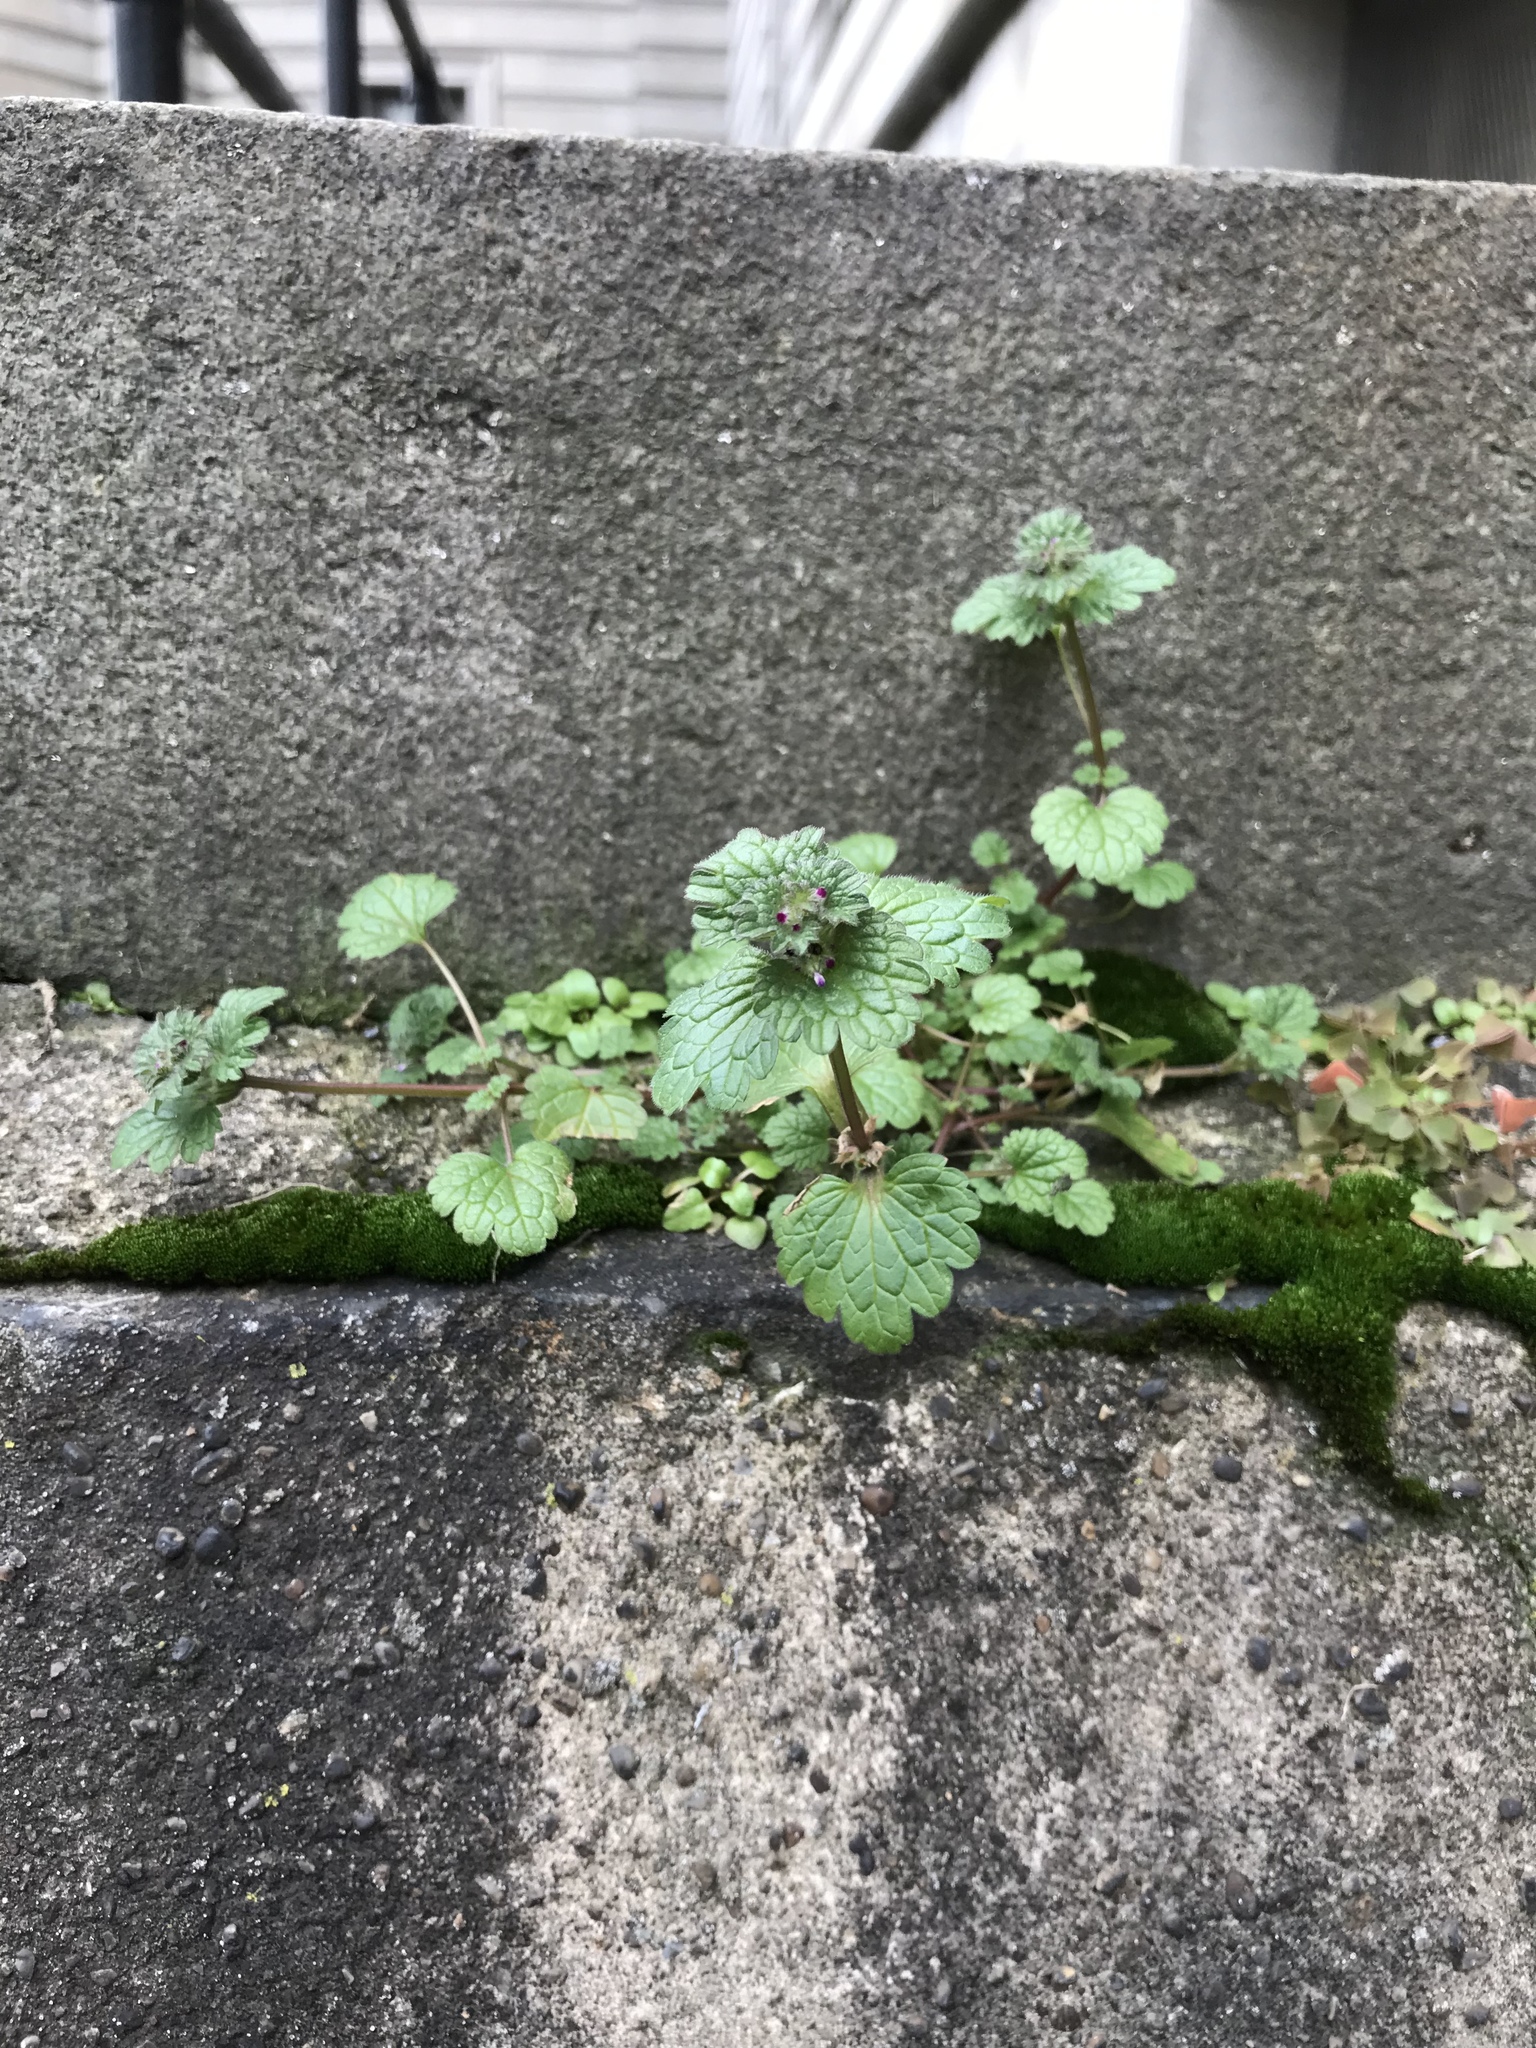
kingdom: Plantae
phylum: Tracheophyta
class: Magnoliopsida
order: Lamiales
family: Lamiaceae
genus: Lamium
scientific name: Lamium amplexicaule
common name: Henbit dead-nettle
